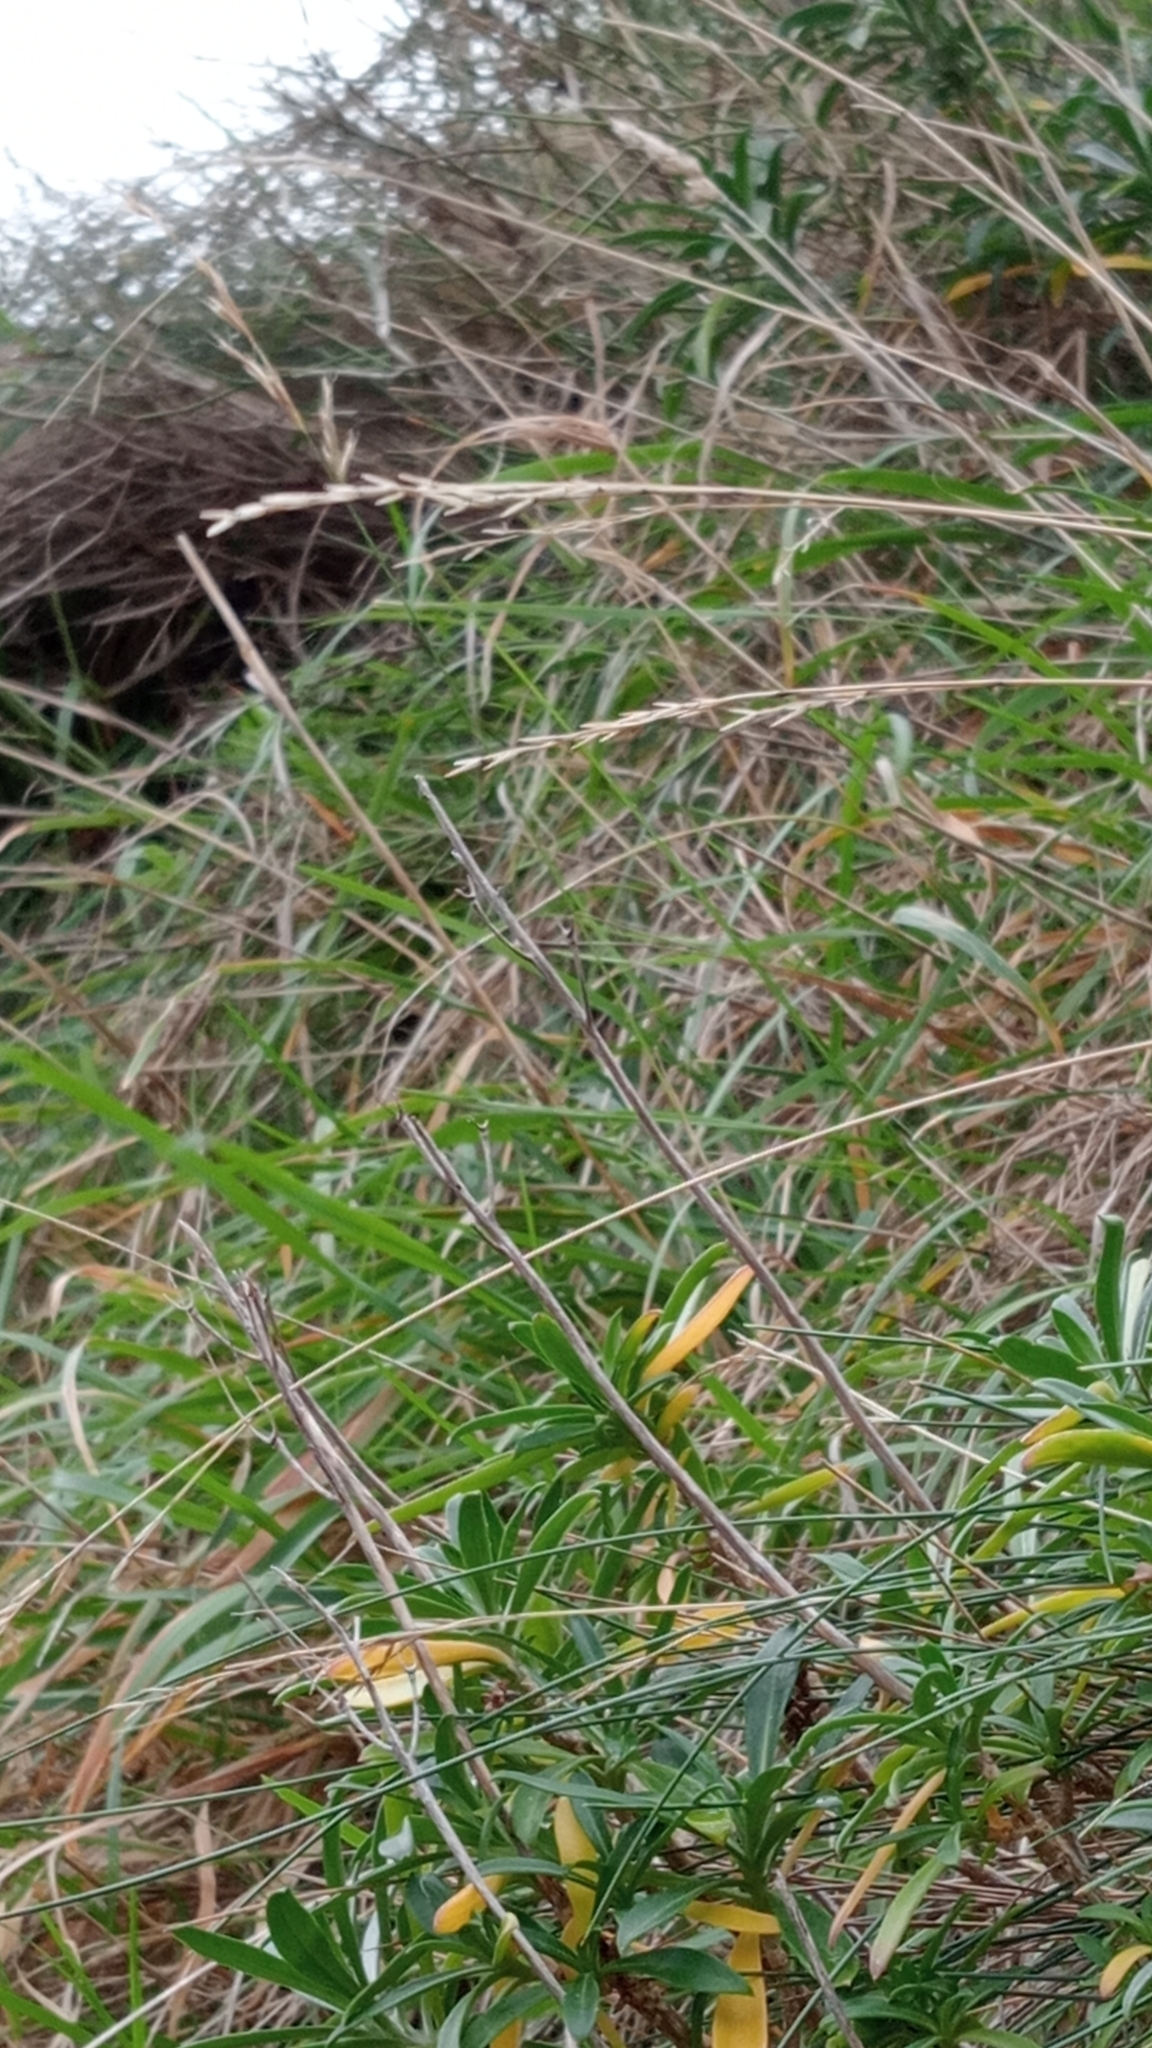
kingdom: Plantae
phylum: Tracheophyta
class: Liliopsida
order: Poales
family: Poaceae
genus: Festuca
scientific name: Festuca actae
